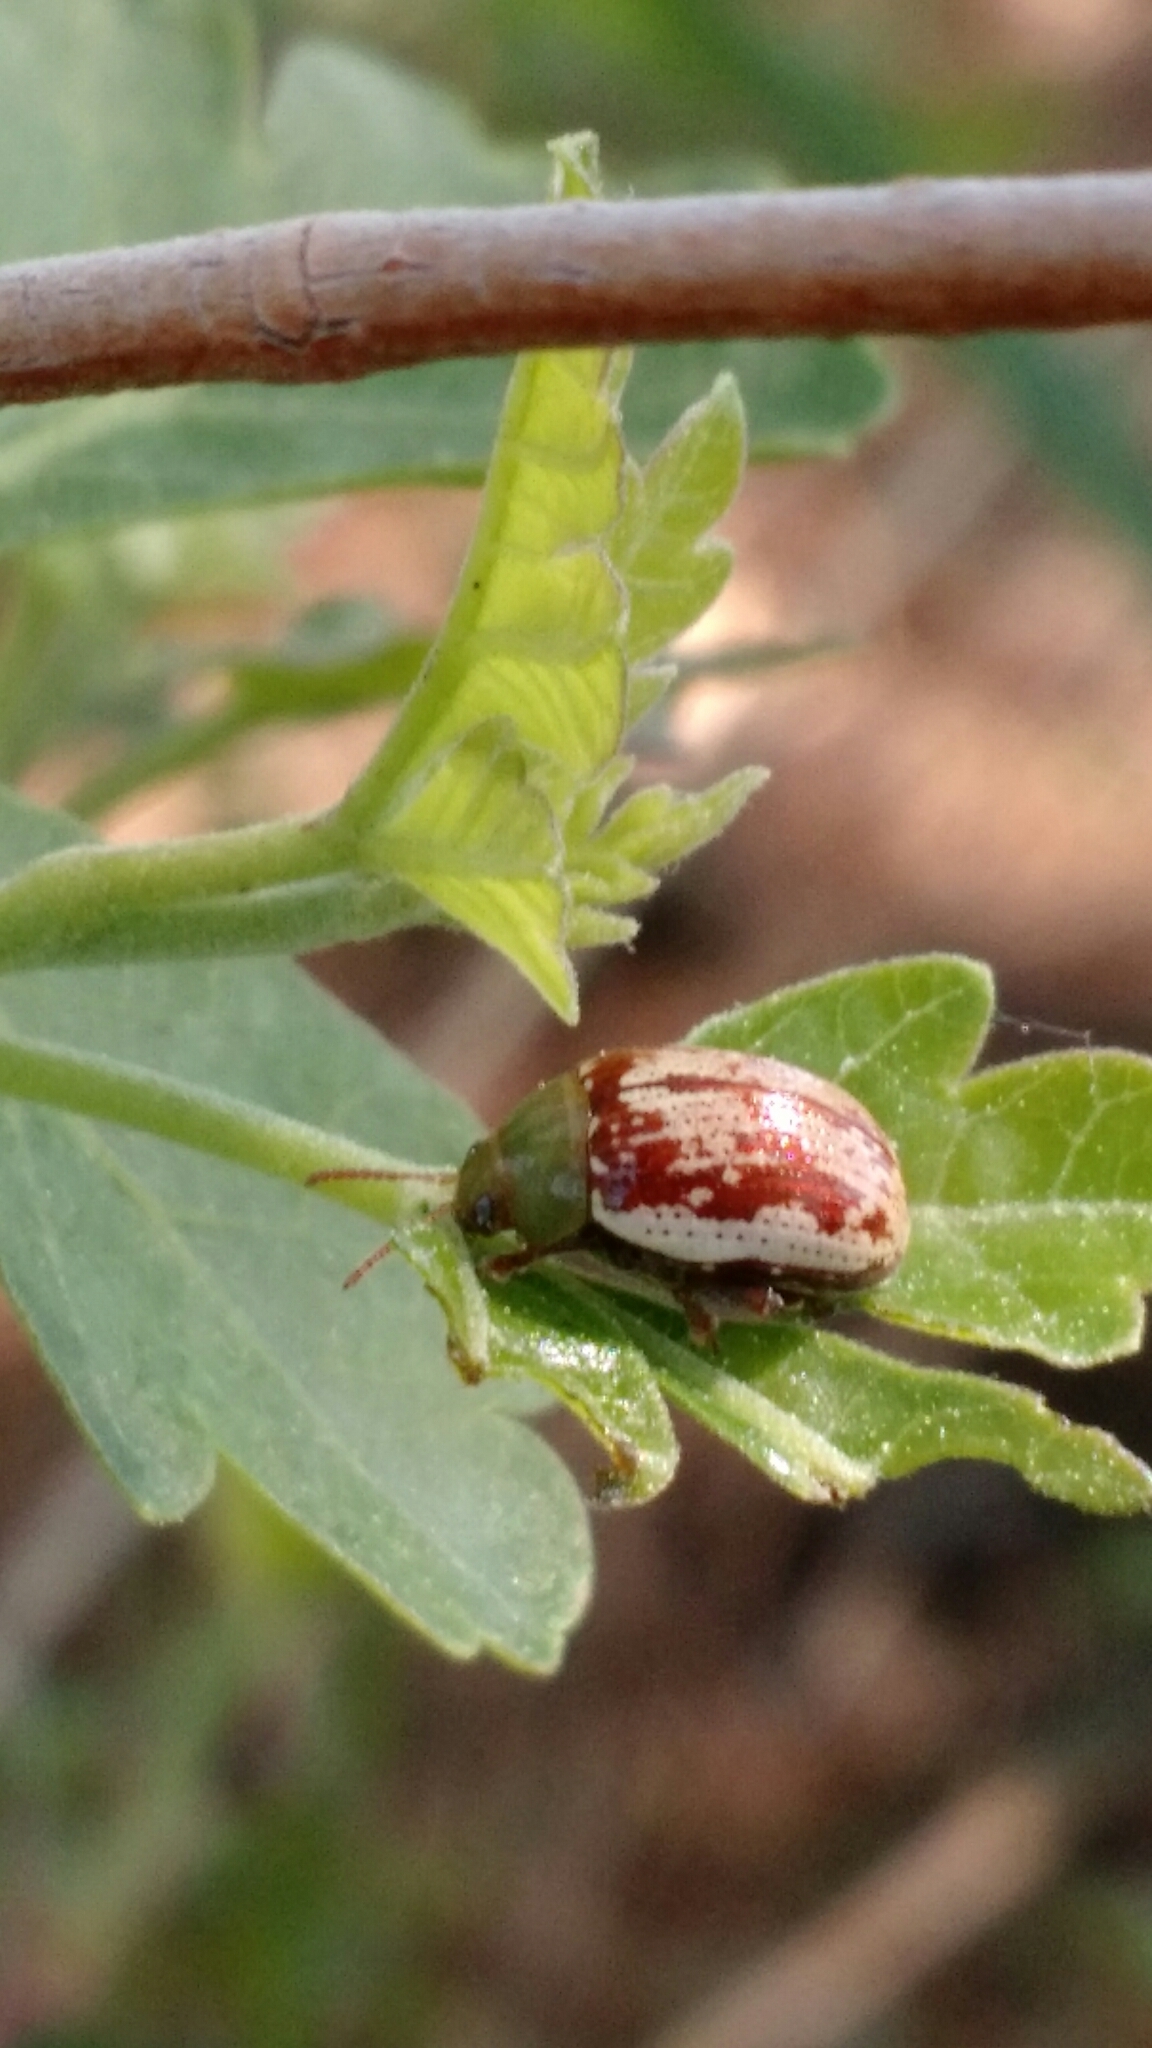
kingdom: Animalia
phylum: Arthropoda
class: Insecta
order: Coleoptera
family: Chrysomelidae
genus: Blepharida
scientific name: Blepharida rhois
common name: Sumac flea beetle
